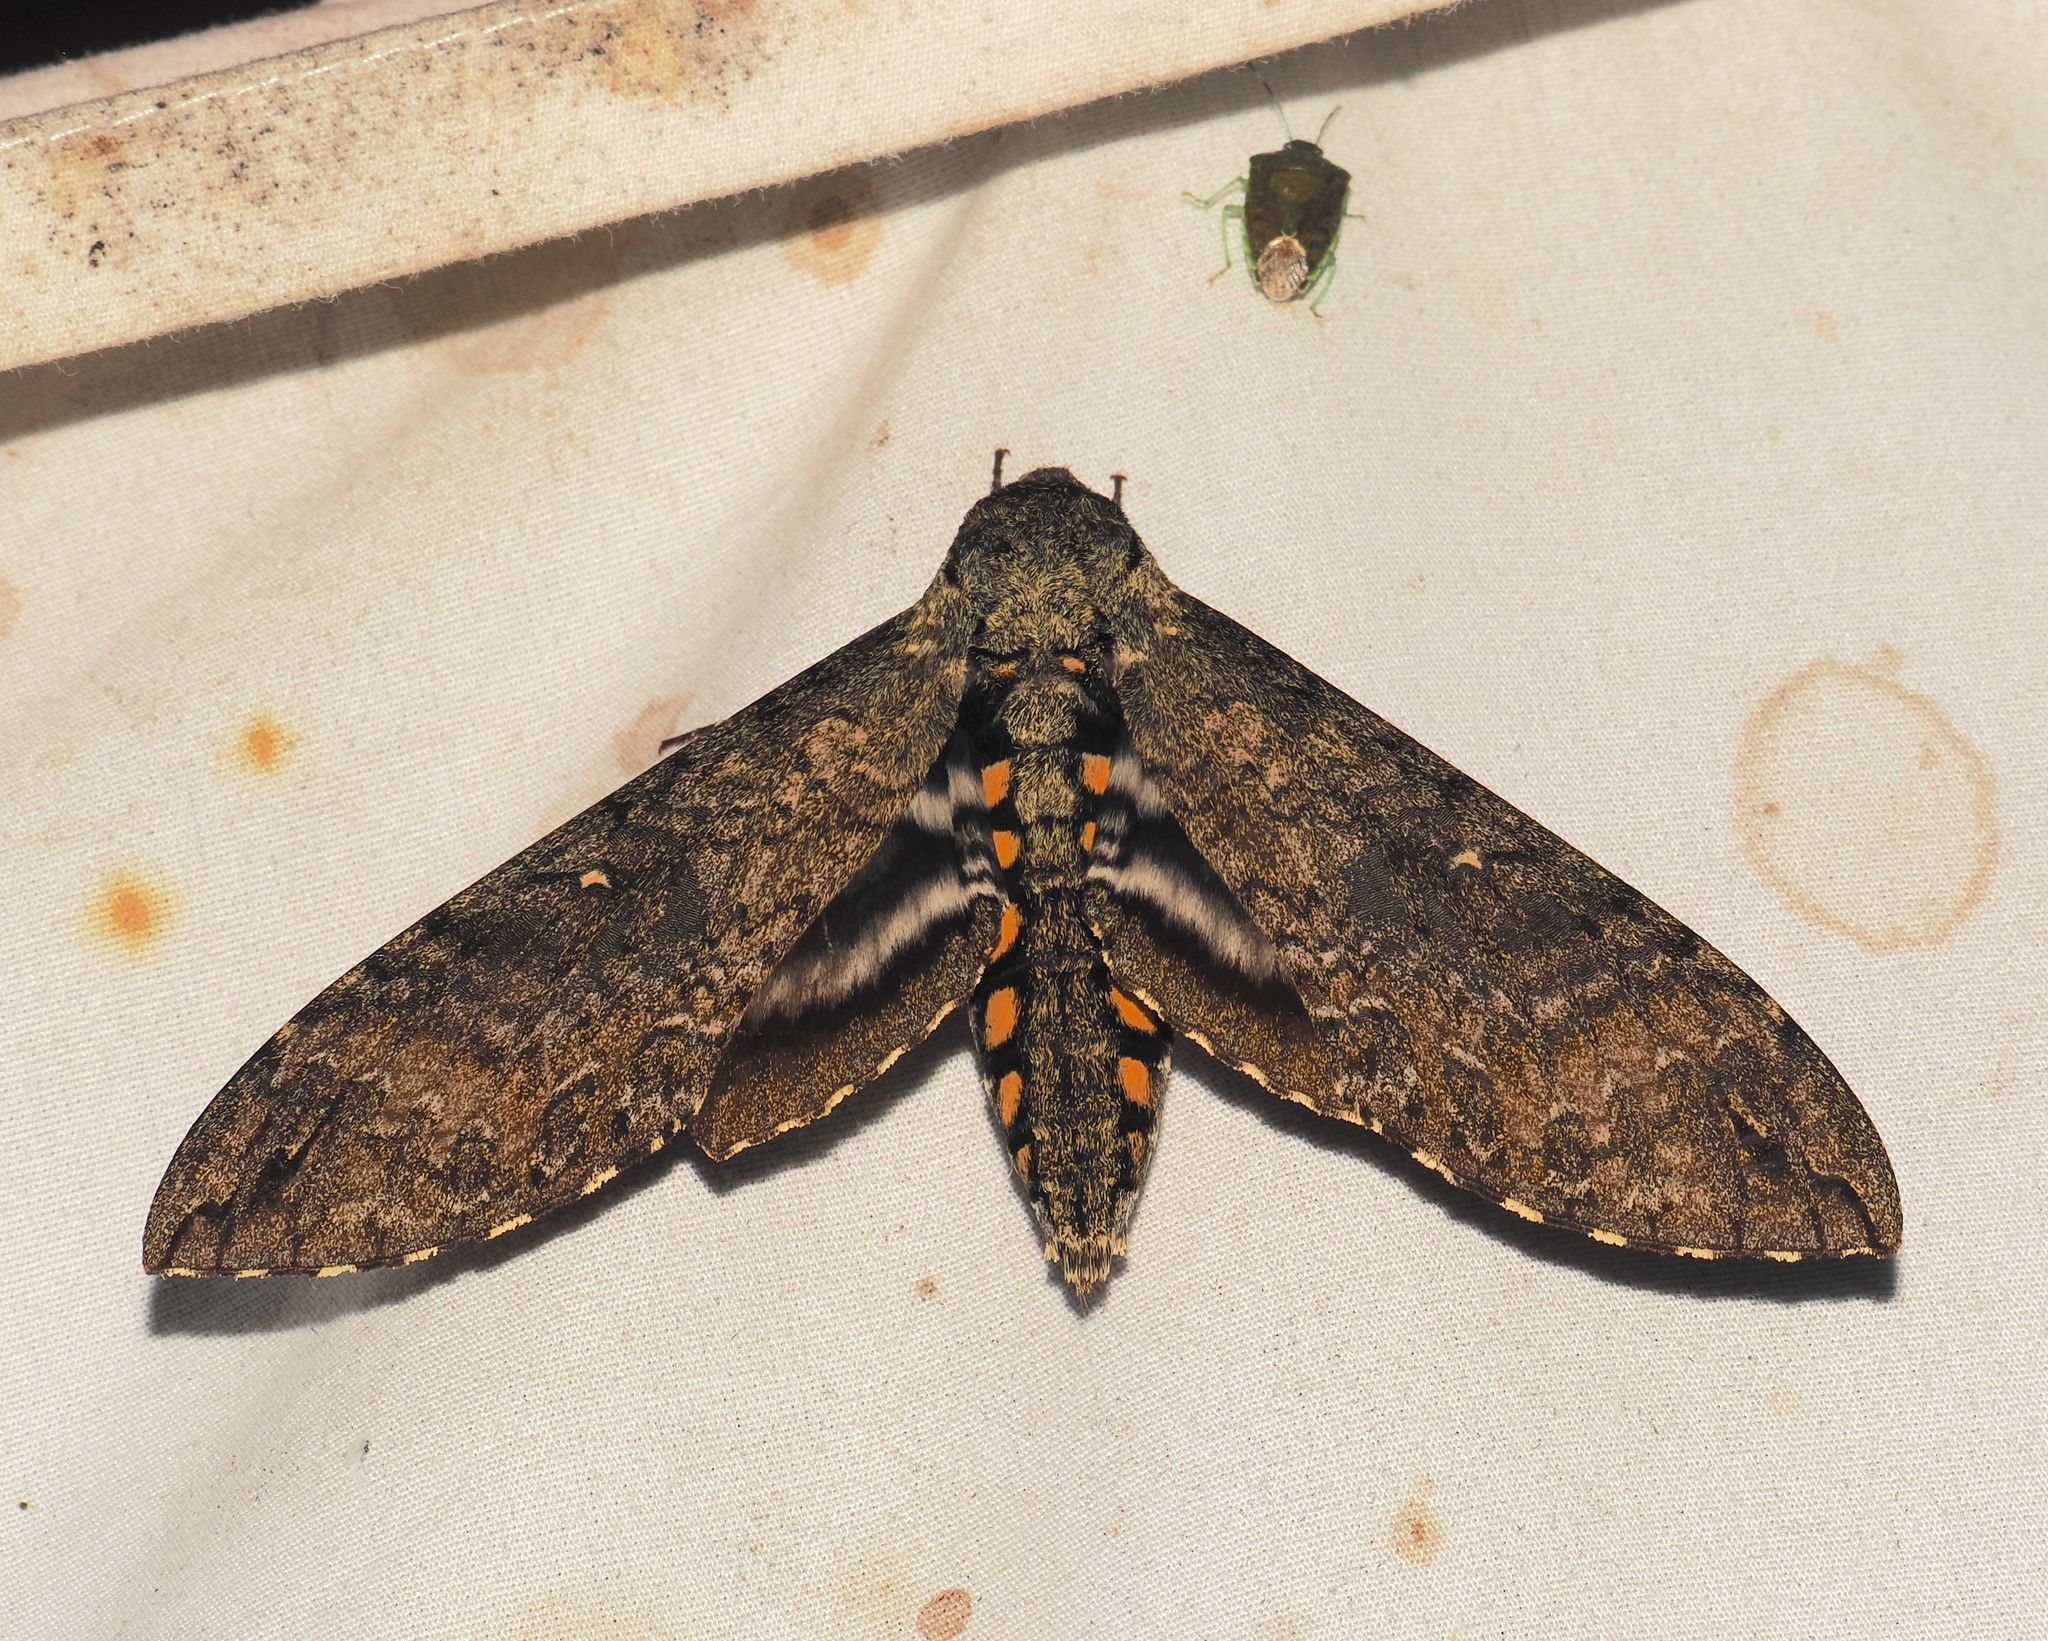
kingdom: Animalia
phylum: Arthropoda
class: Insecta
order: Lepidoptera
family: Sphingidae
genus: Manduca
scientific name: Manduca diffissa
